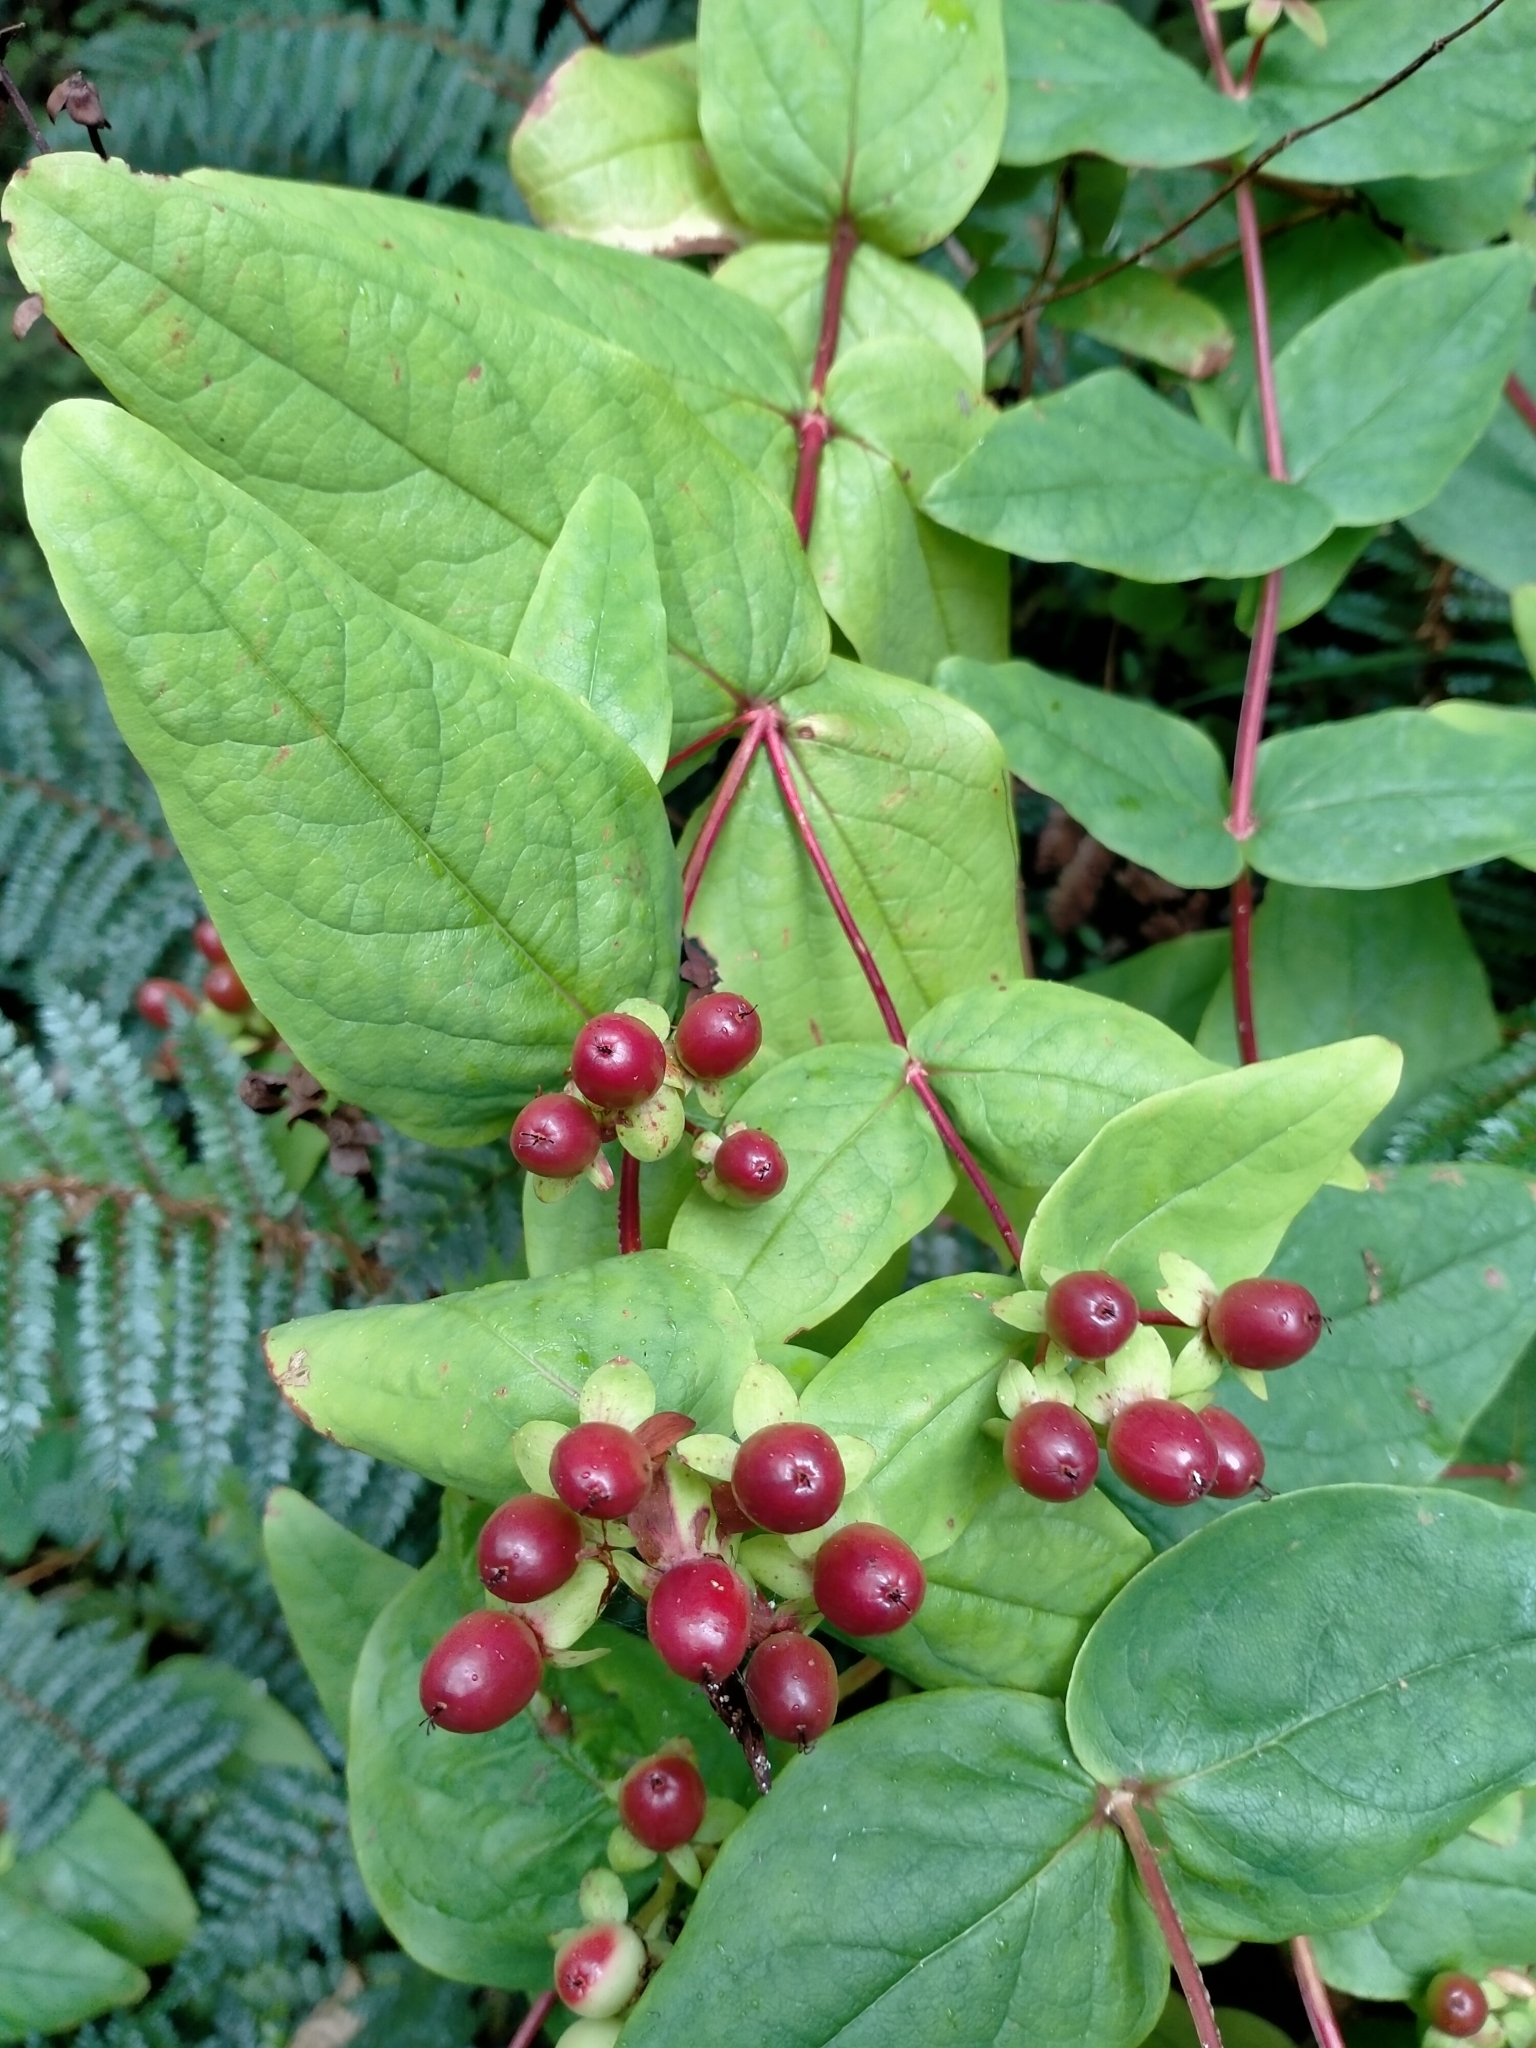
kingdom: Plantae
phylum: Tracheophyta
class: Magnoliopsida
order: Malpighiales
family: Hypericaceae
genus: Hypericum
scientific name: Hypericum androsaemum
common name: Sweet-amber
